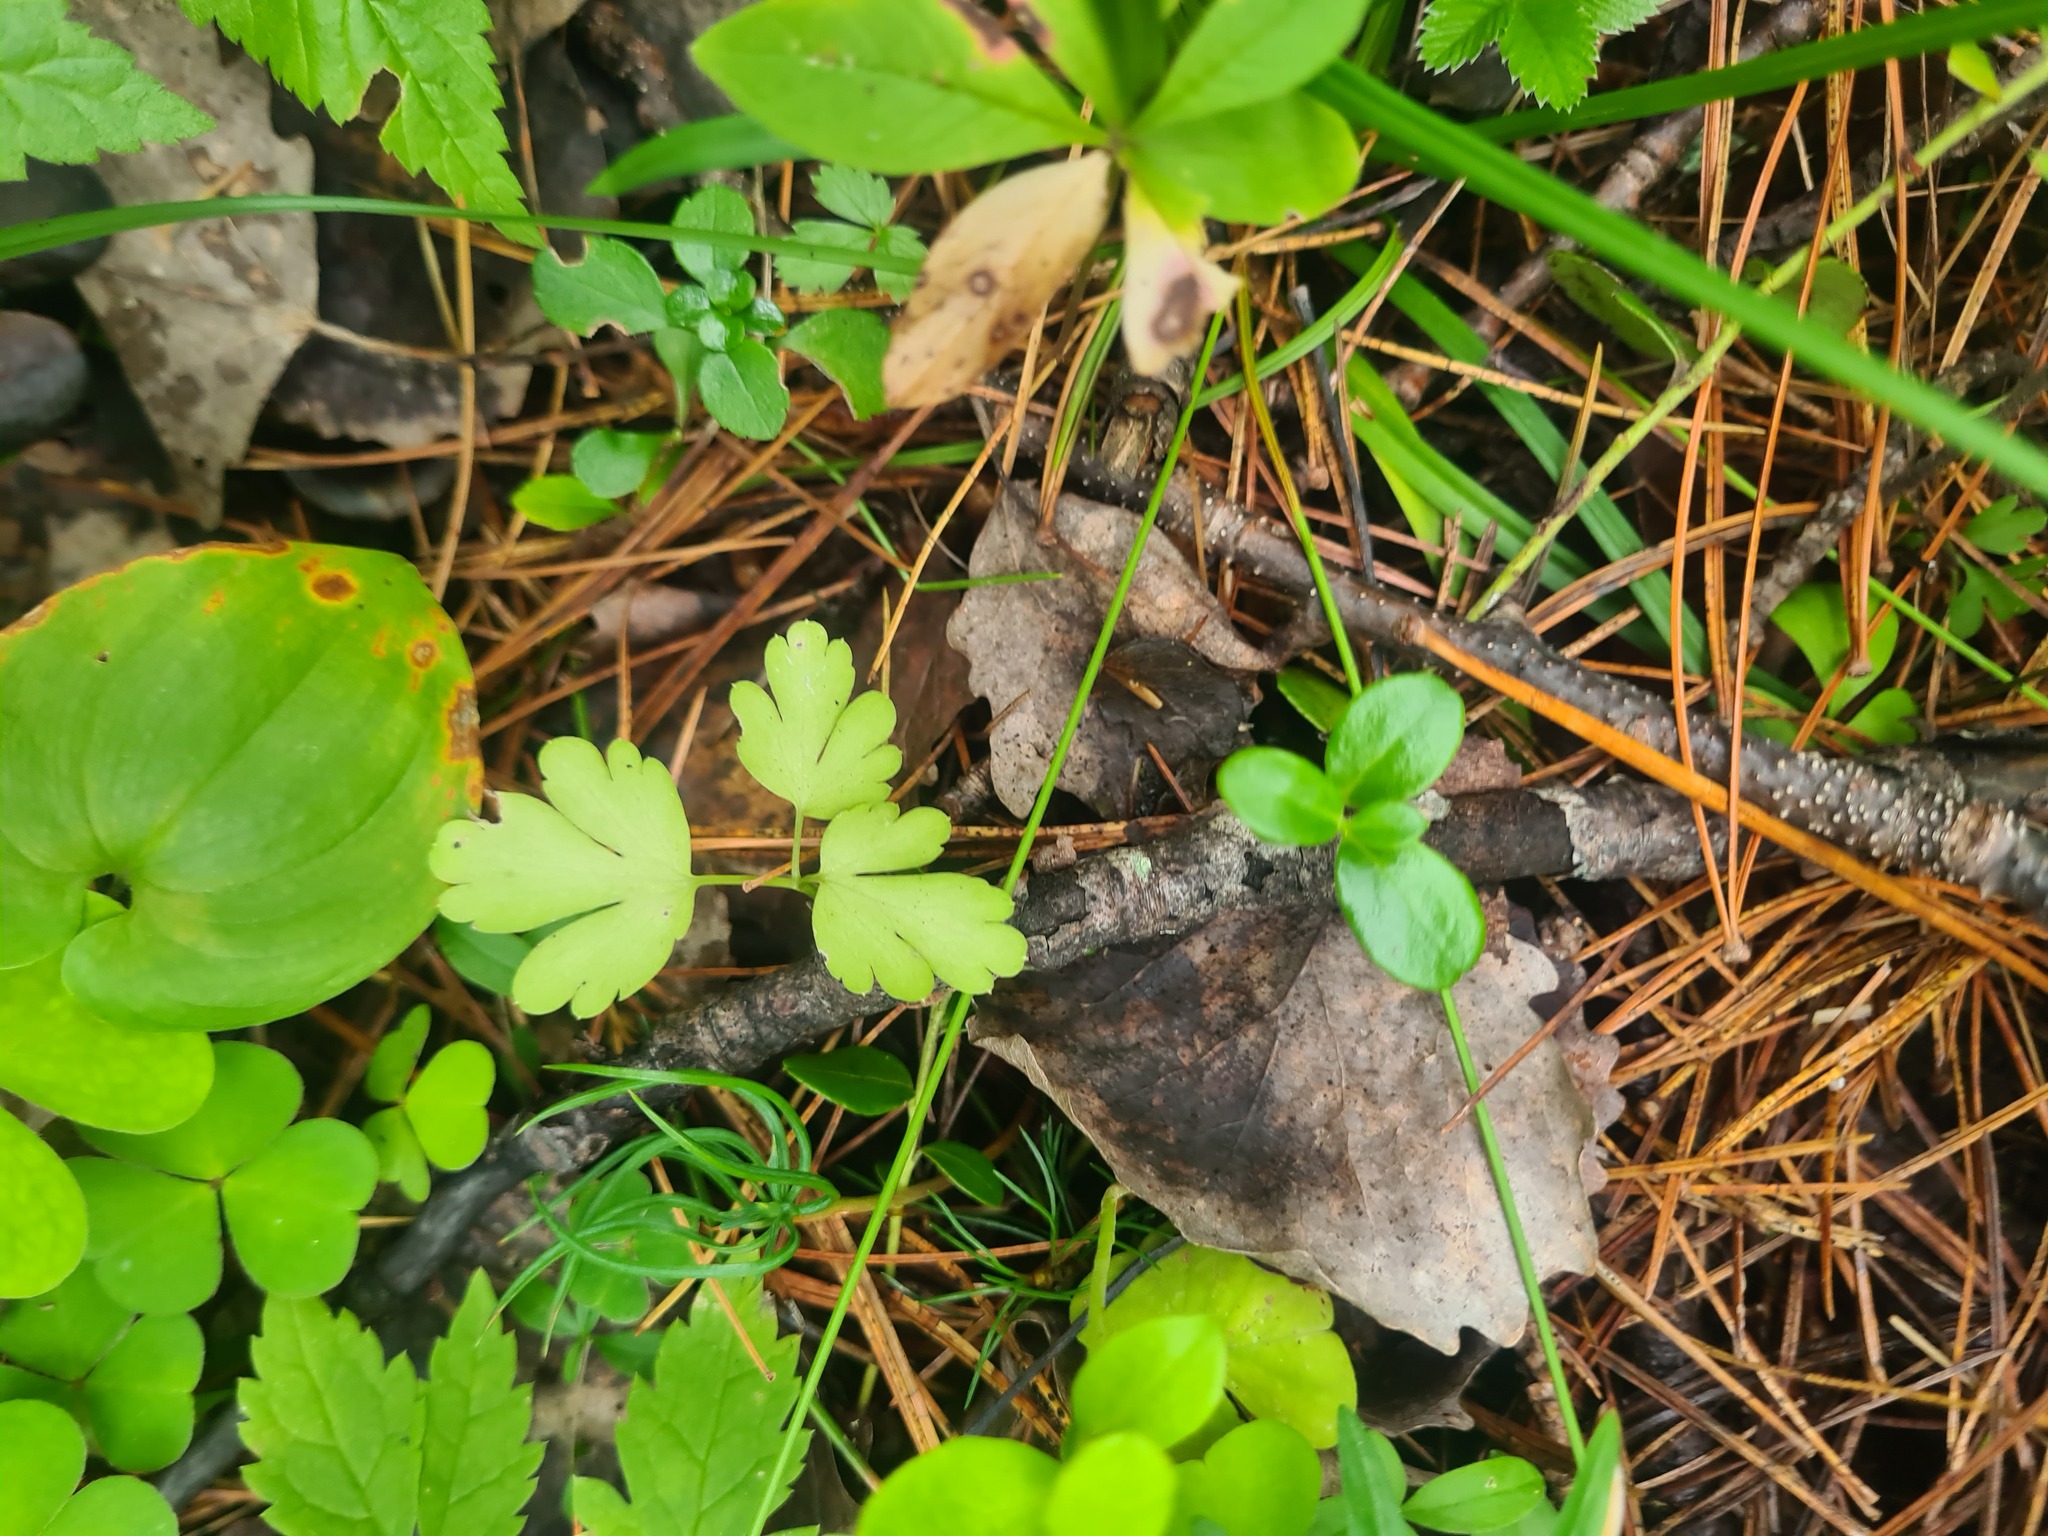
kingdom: Plantae
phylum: Tracheophyta
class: Magnoliopsida
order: Dipsacales
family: Viburnaceae
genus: Adoxa
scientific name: Adoxa moschatellina
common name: Moschatel
